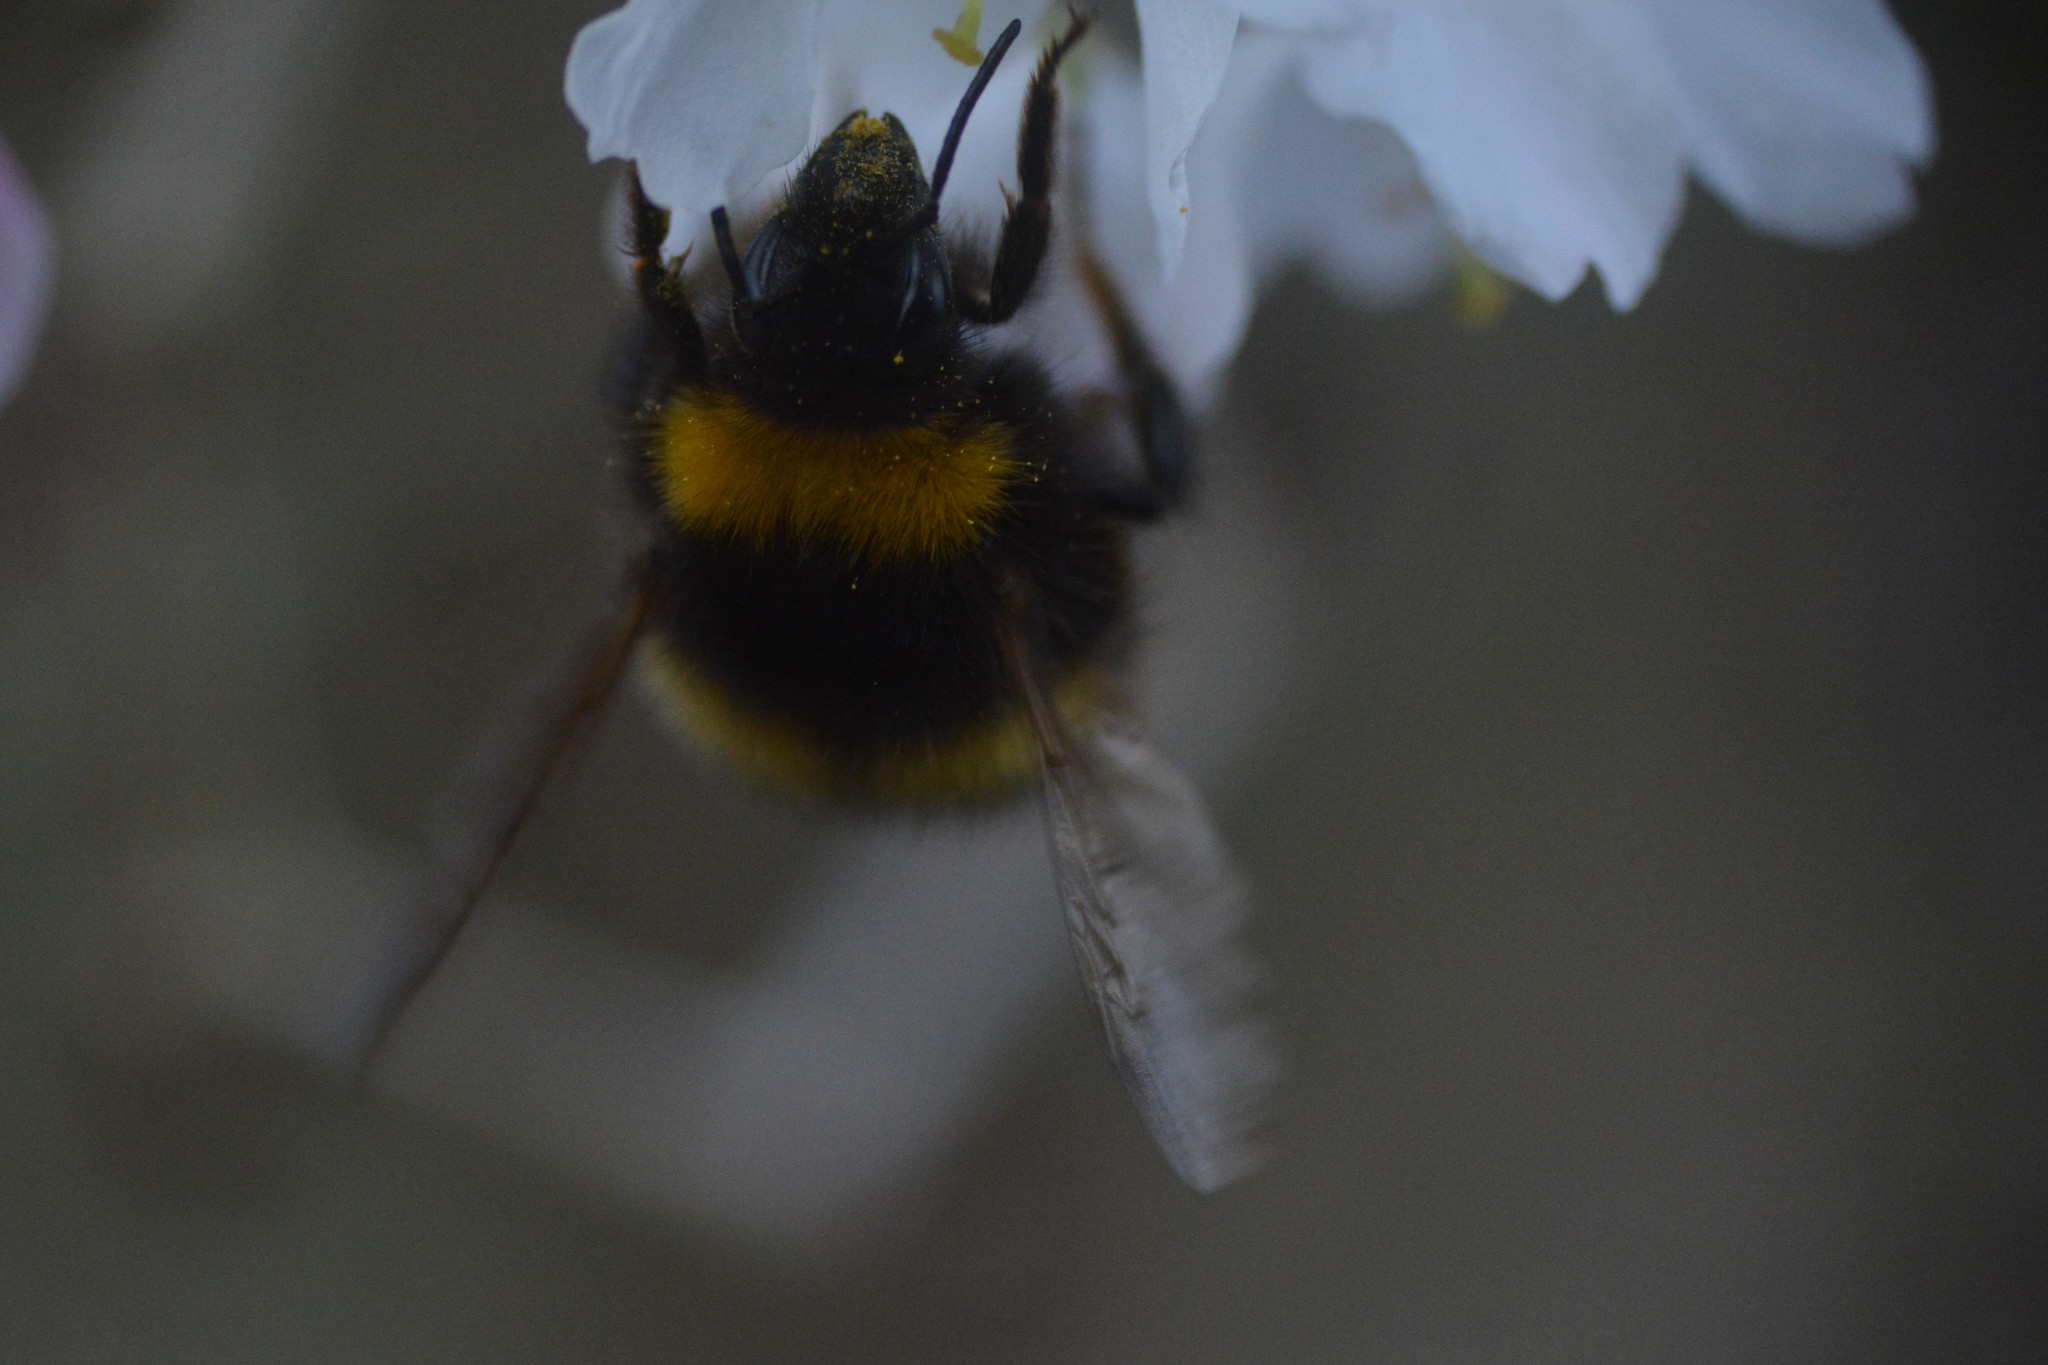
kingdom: Animalia
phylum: Arthropoda
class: Insecta
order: Hymenoptera
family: Apidae
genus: Bombus
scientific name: Bombus pratorum
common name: Early humble-bee
